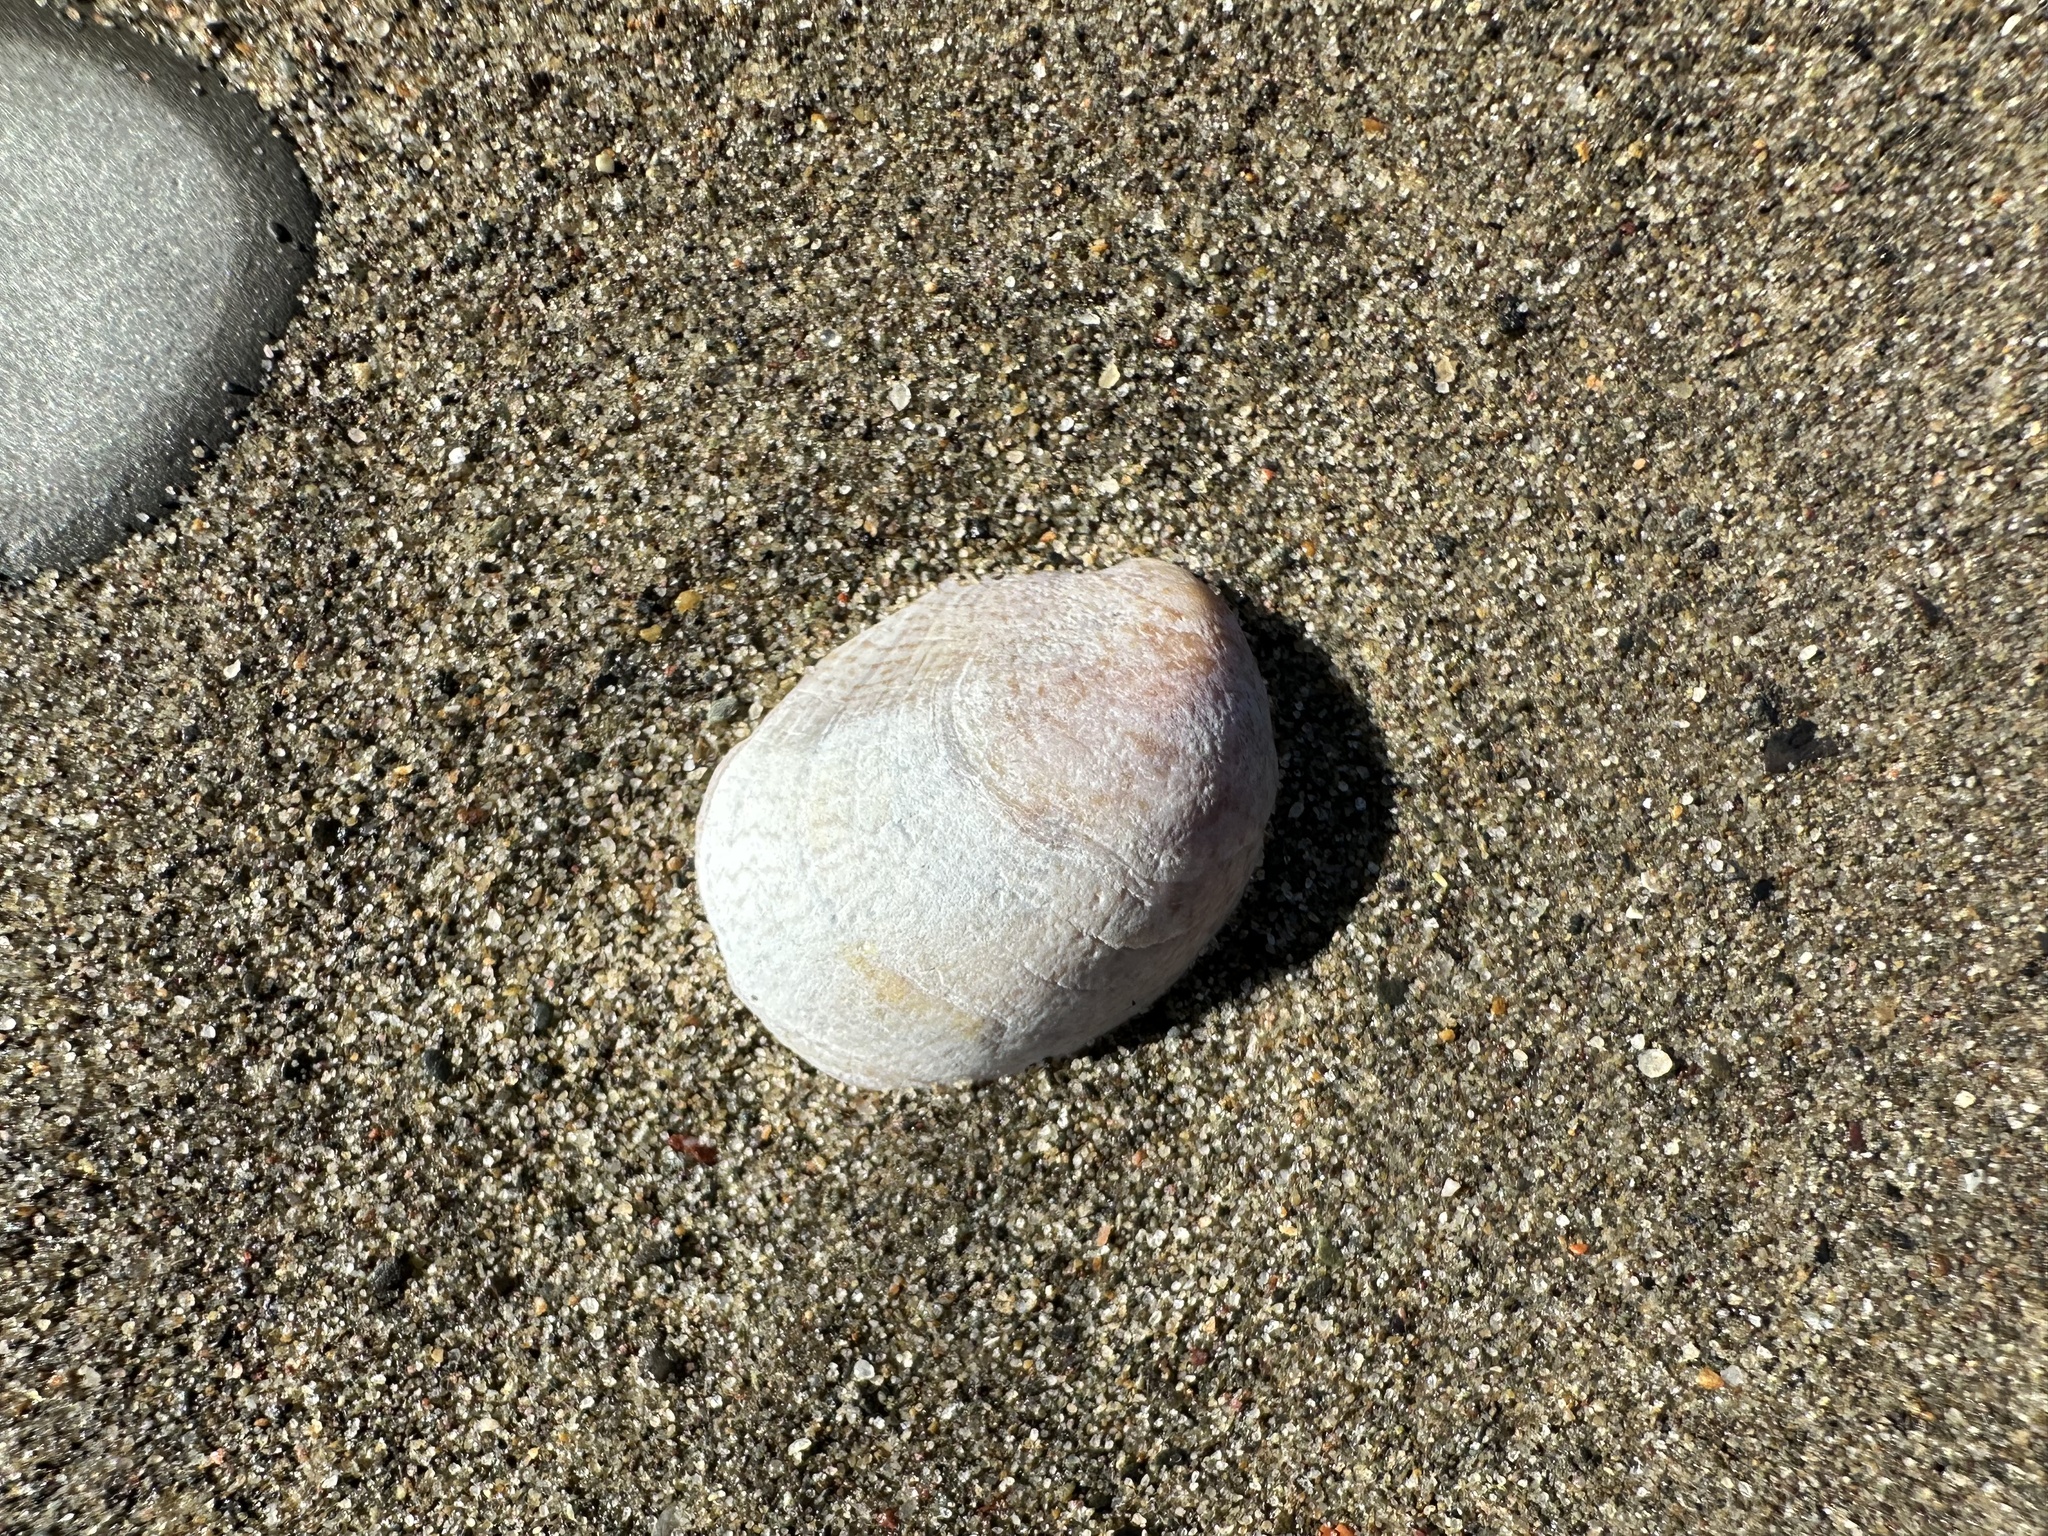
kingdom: Animalia
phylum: Mollusca
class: Gastropoda
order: Littorinimorpha
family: Calyptraeidae
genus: Crepidula
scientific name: Crepidula fornicata
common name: Slipper limpet
